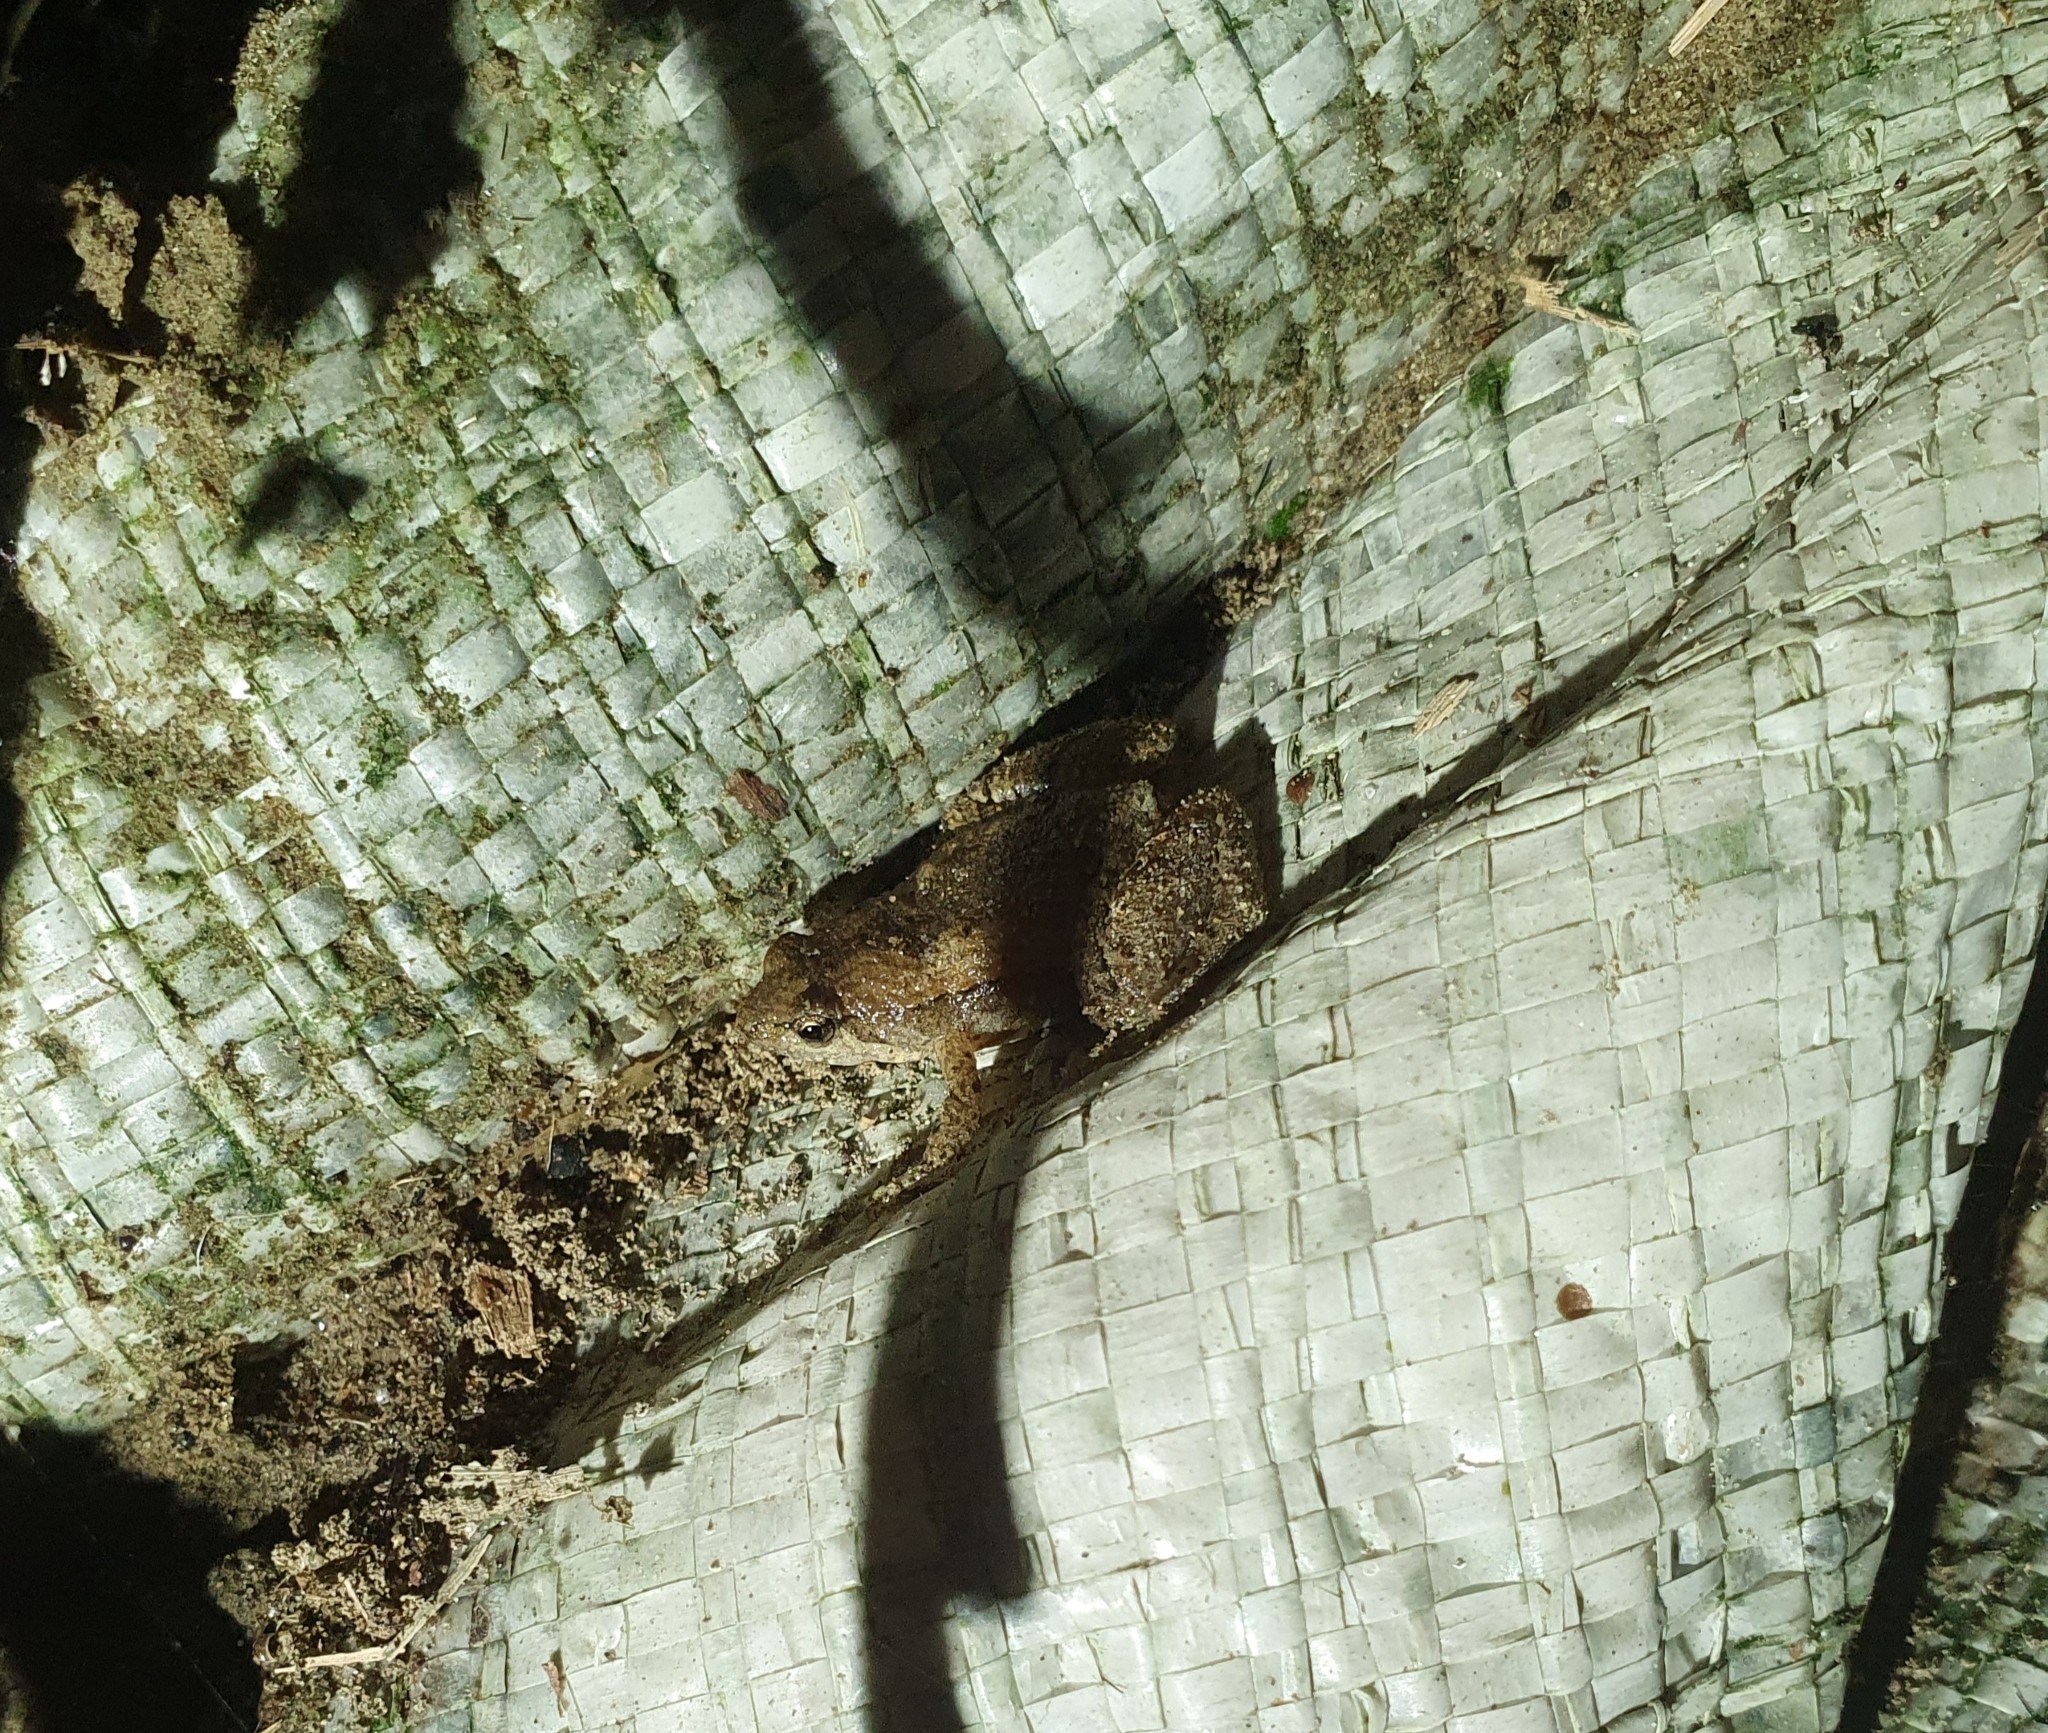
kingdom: Animalia
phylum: Chordata
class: Amphibia
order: Anura
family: Microhylidae
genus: Microhyla
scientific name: Microhyla fissipes
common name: Ornate narrow-mouthed frog
